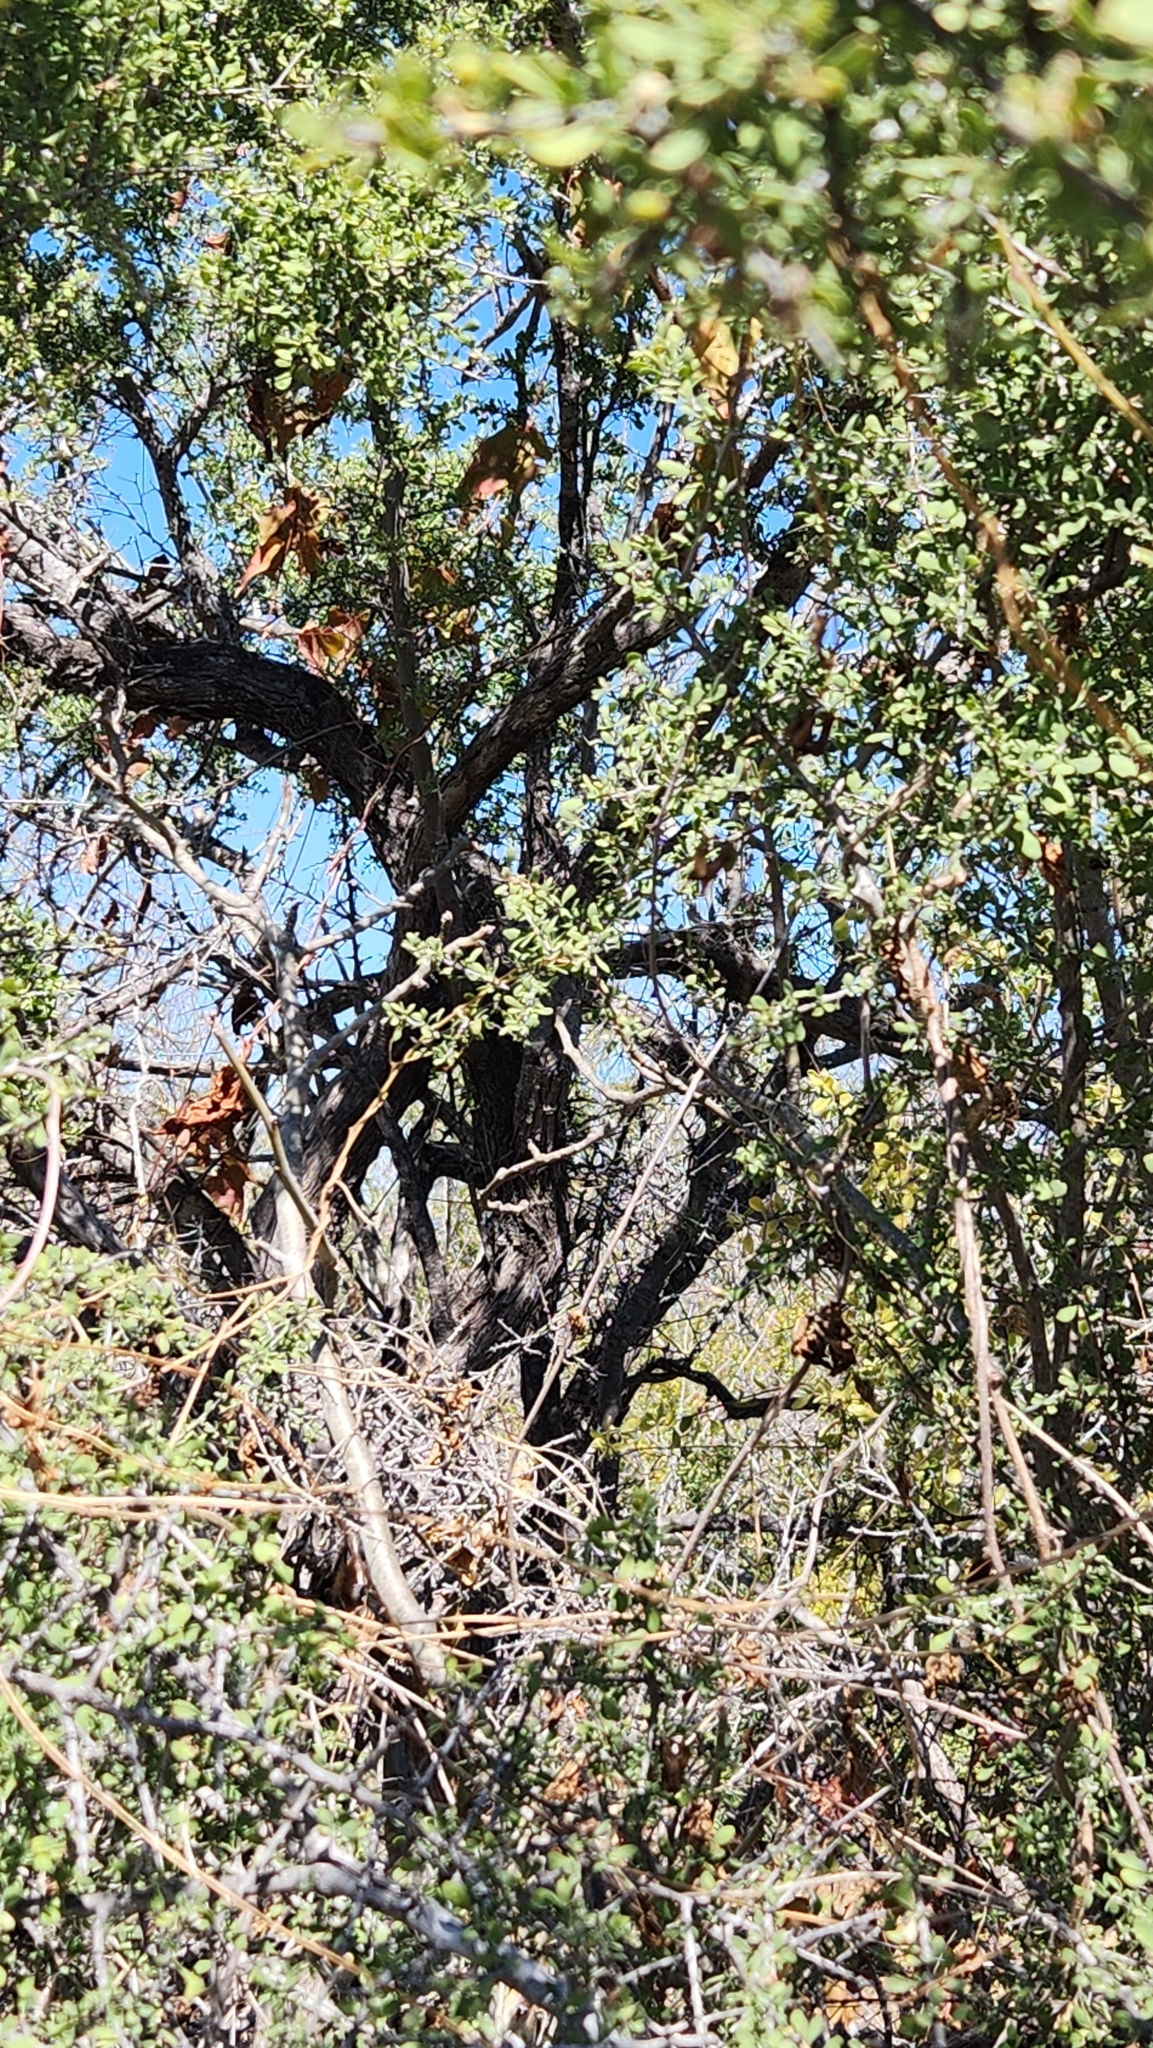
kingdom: Plantae
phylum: Tracheophyta
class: Magnoliopsida
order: Rosales
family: Rhamnaceae
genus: Condalia
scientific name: Condalia globosa
